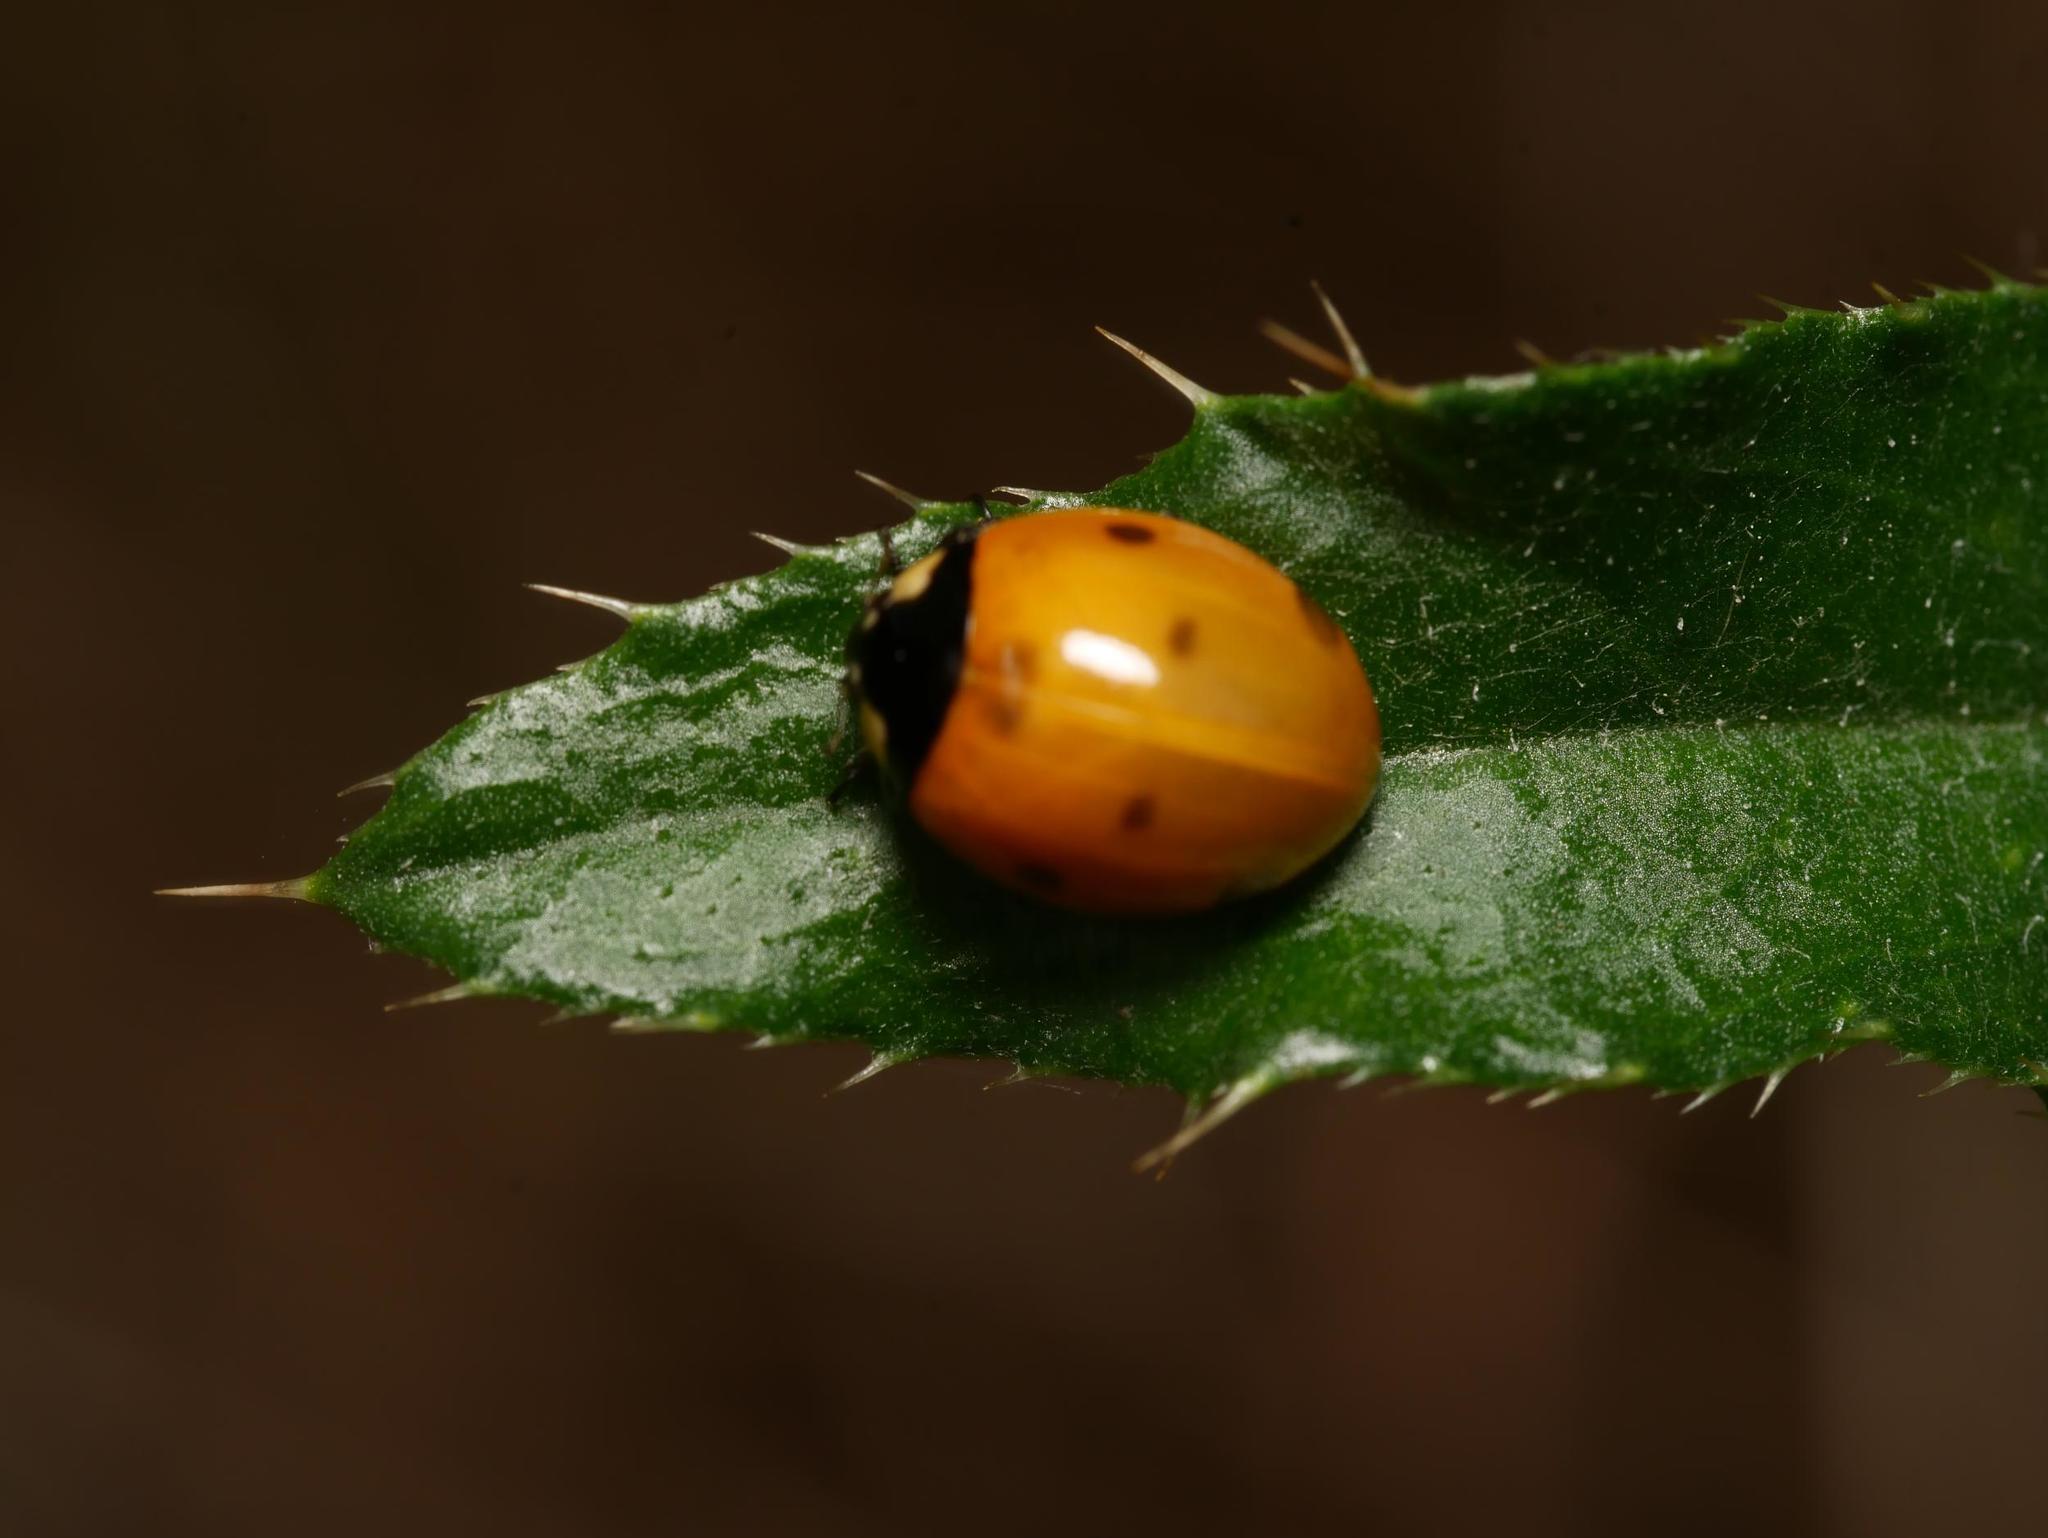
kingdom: Animalia
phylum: Arthropoda
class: Insecta
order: Coleoptera
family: Coccinellidae
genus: Coccinella
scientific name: Coccinella septempunctata
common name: Sevenspotted lady beetle
